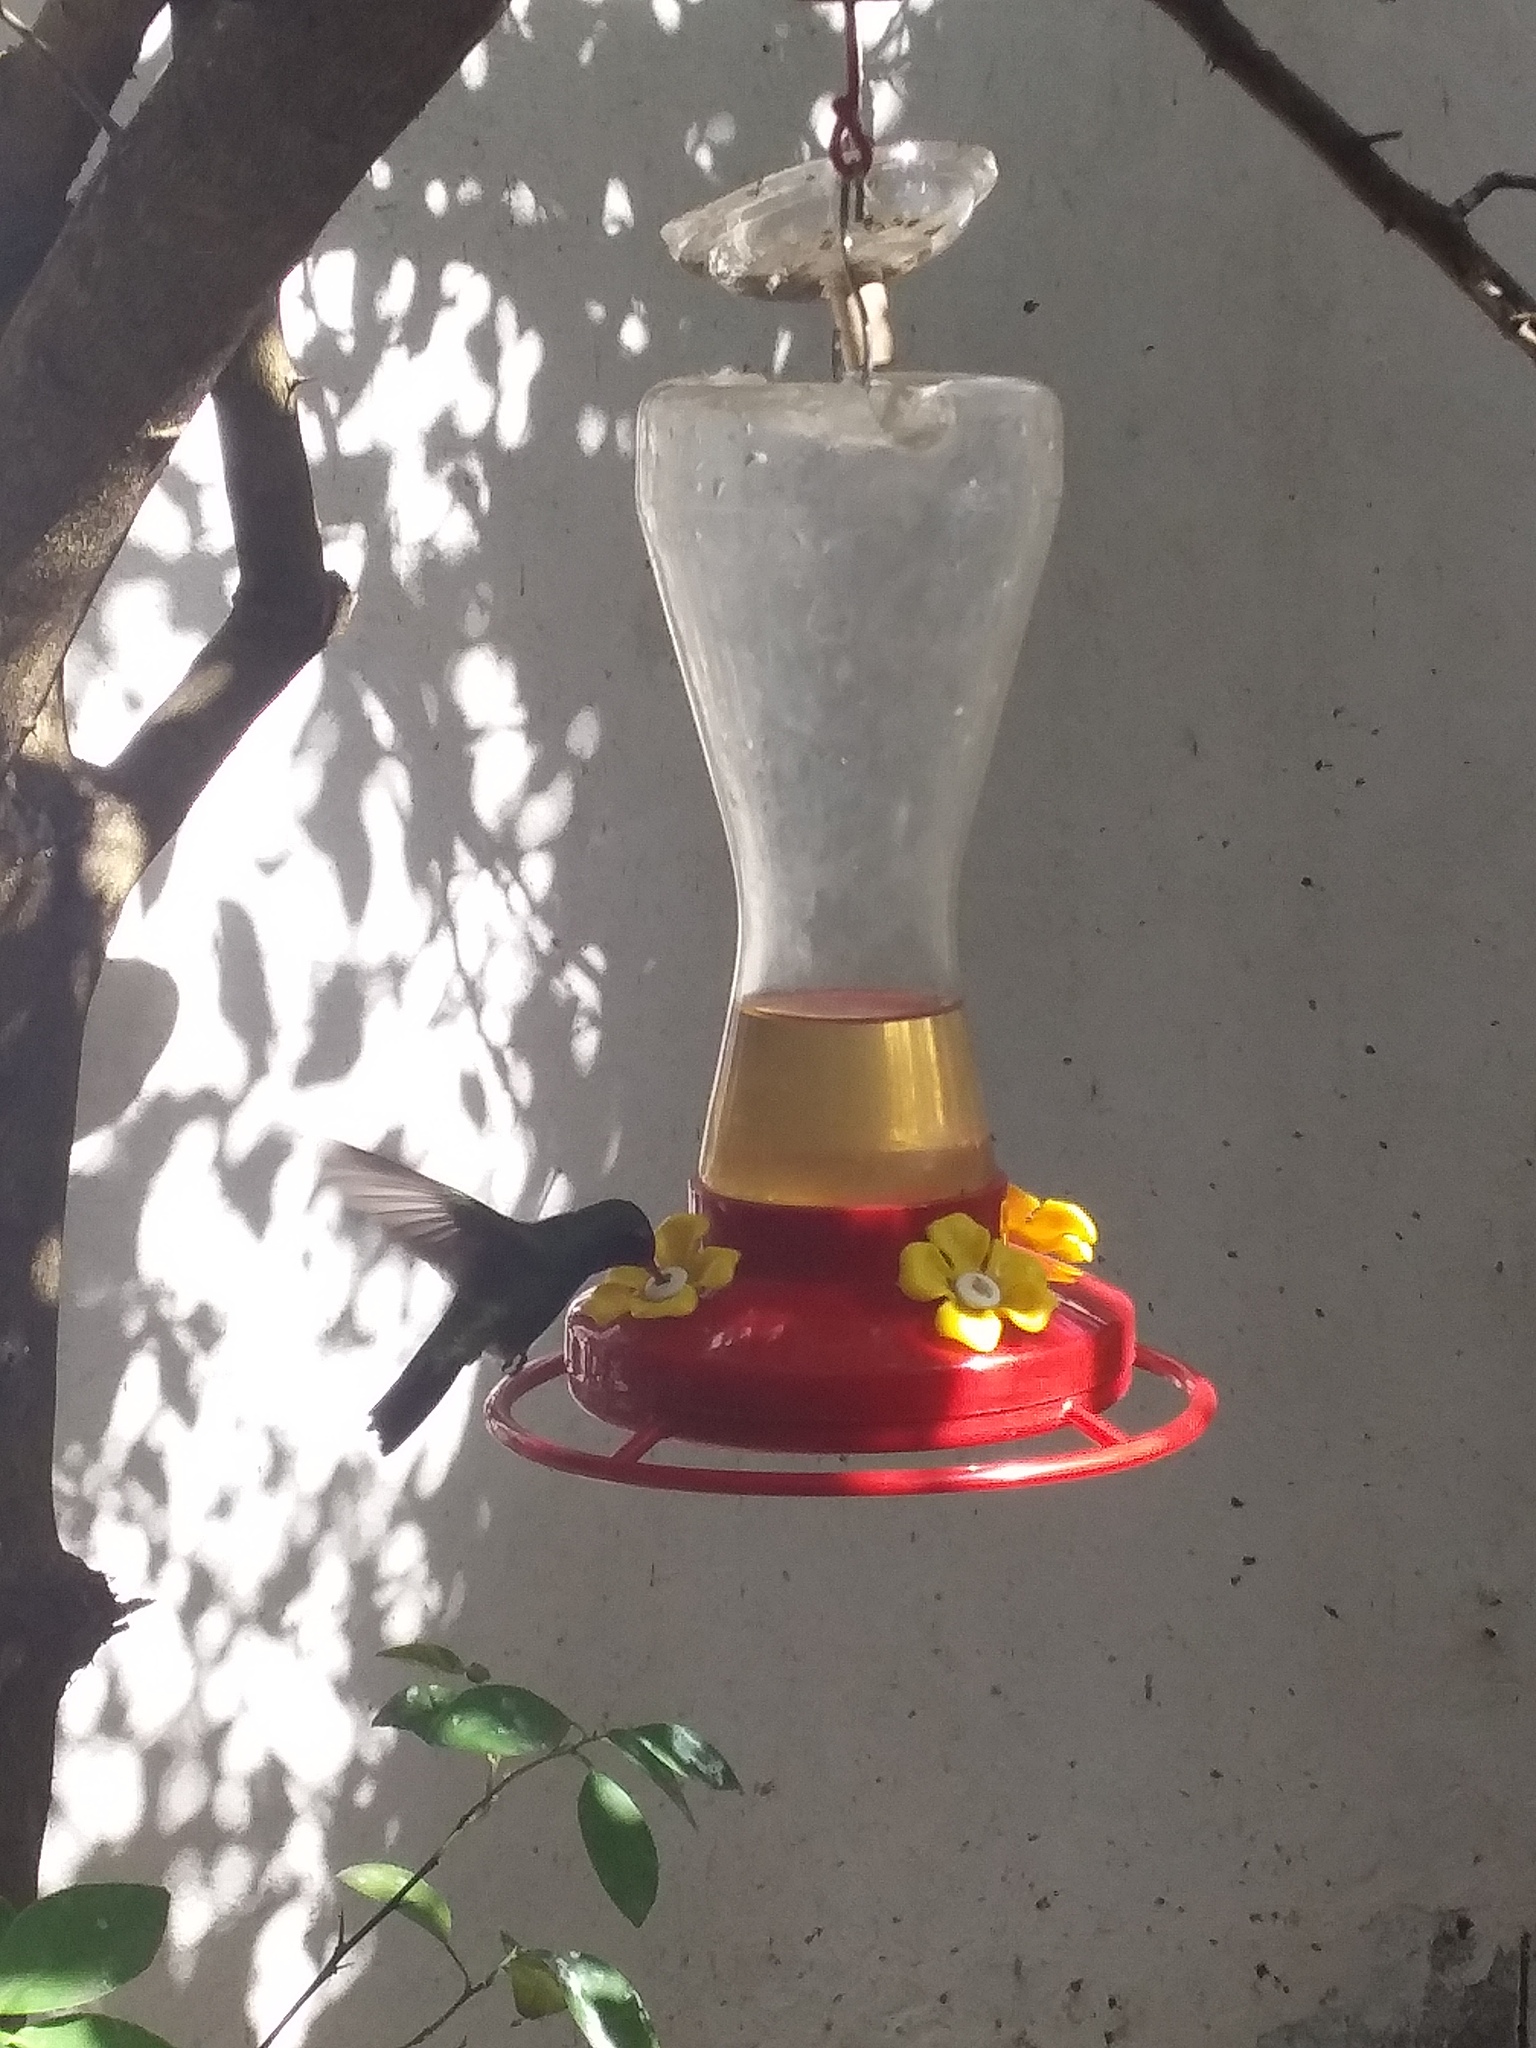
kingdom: Animalia
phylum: Chordata
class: Aves
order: Apodiformes
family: Trochilidae
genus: Cynanthus
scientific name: Cynanthus latirostris
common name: Broad-billed hummingbird
